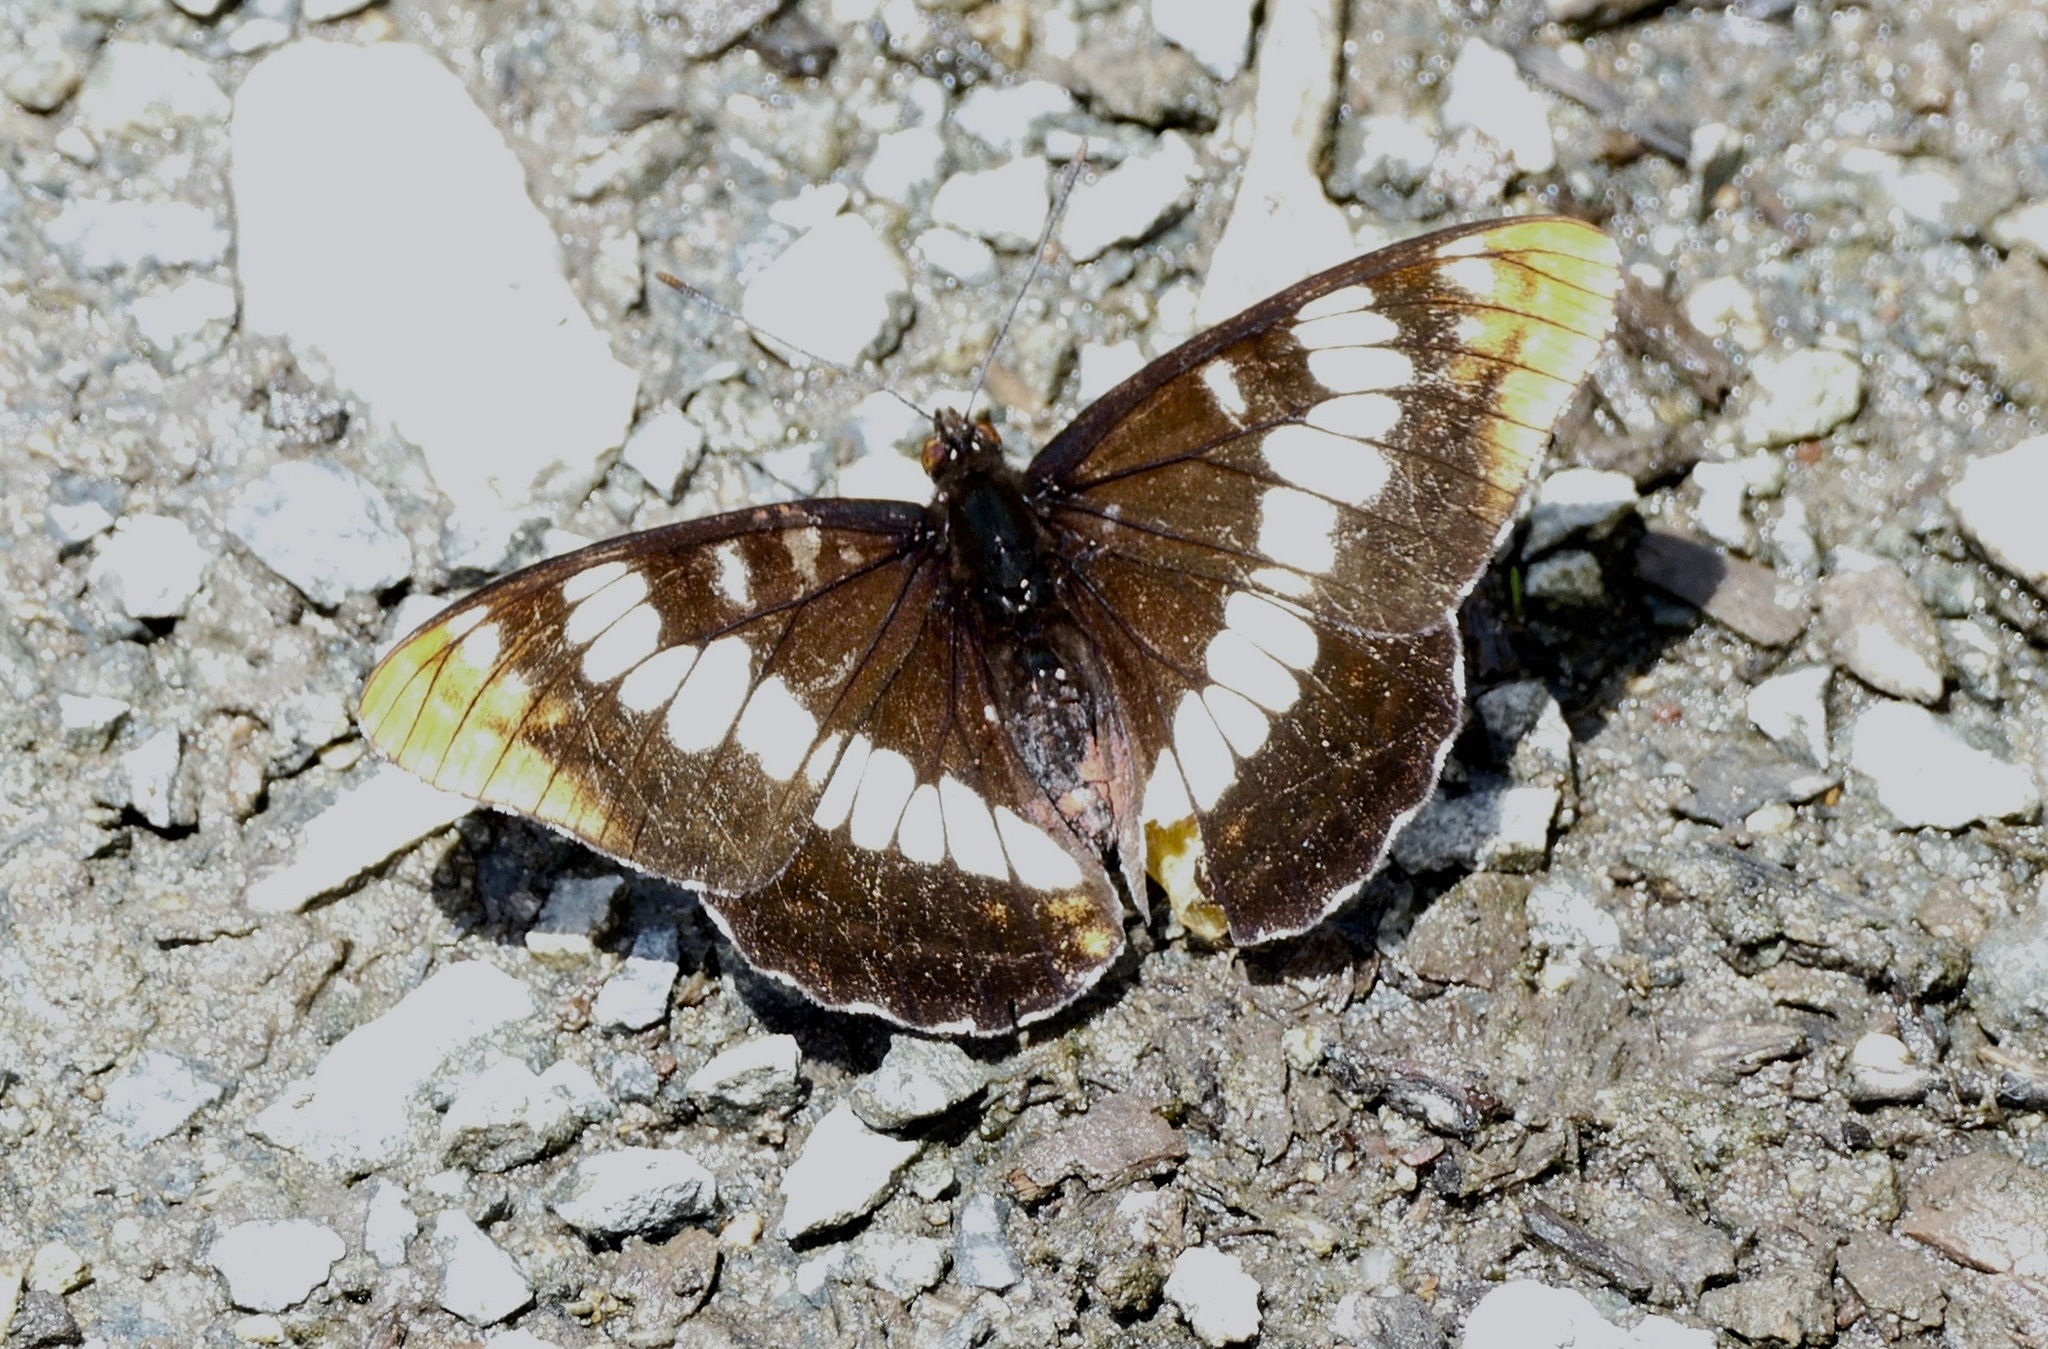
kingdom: Animalia
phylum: Arthropoda
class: Insecta
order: Lepidoptera
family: Nymphalidae
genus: Limenitis
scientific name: Limenitis lorquini
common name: Lorquin's admiral
